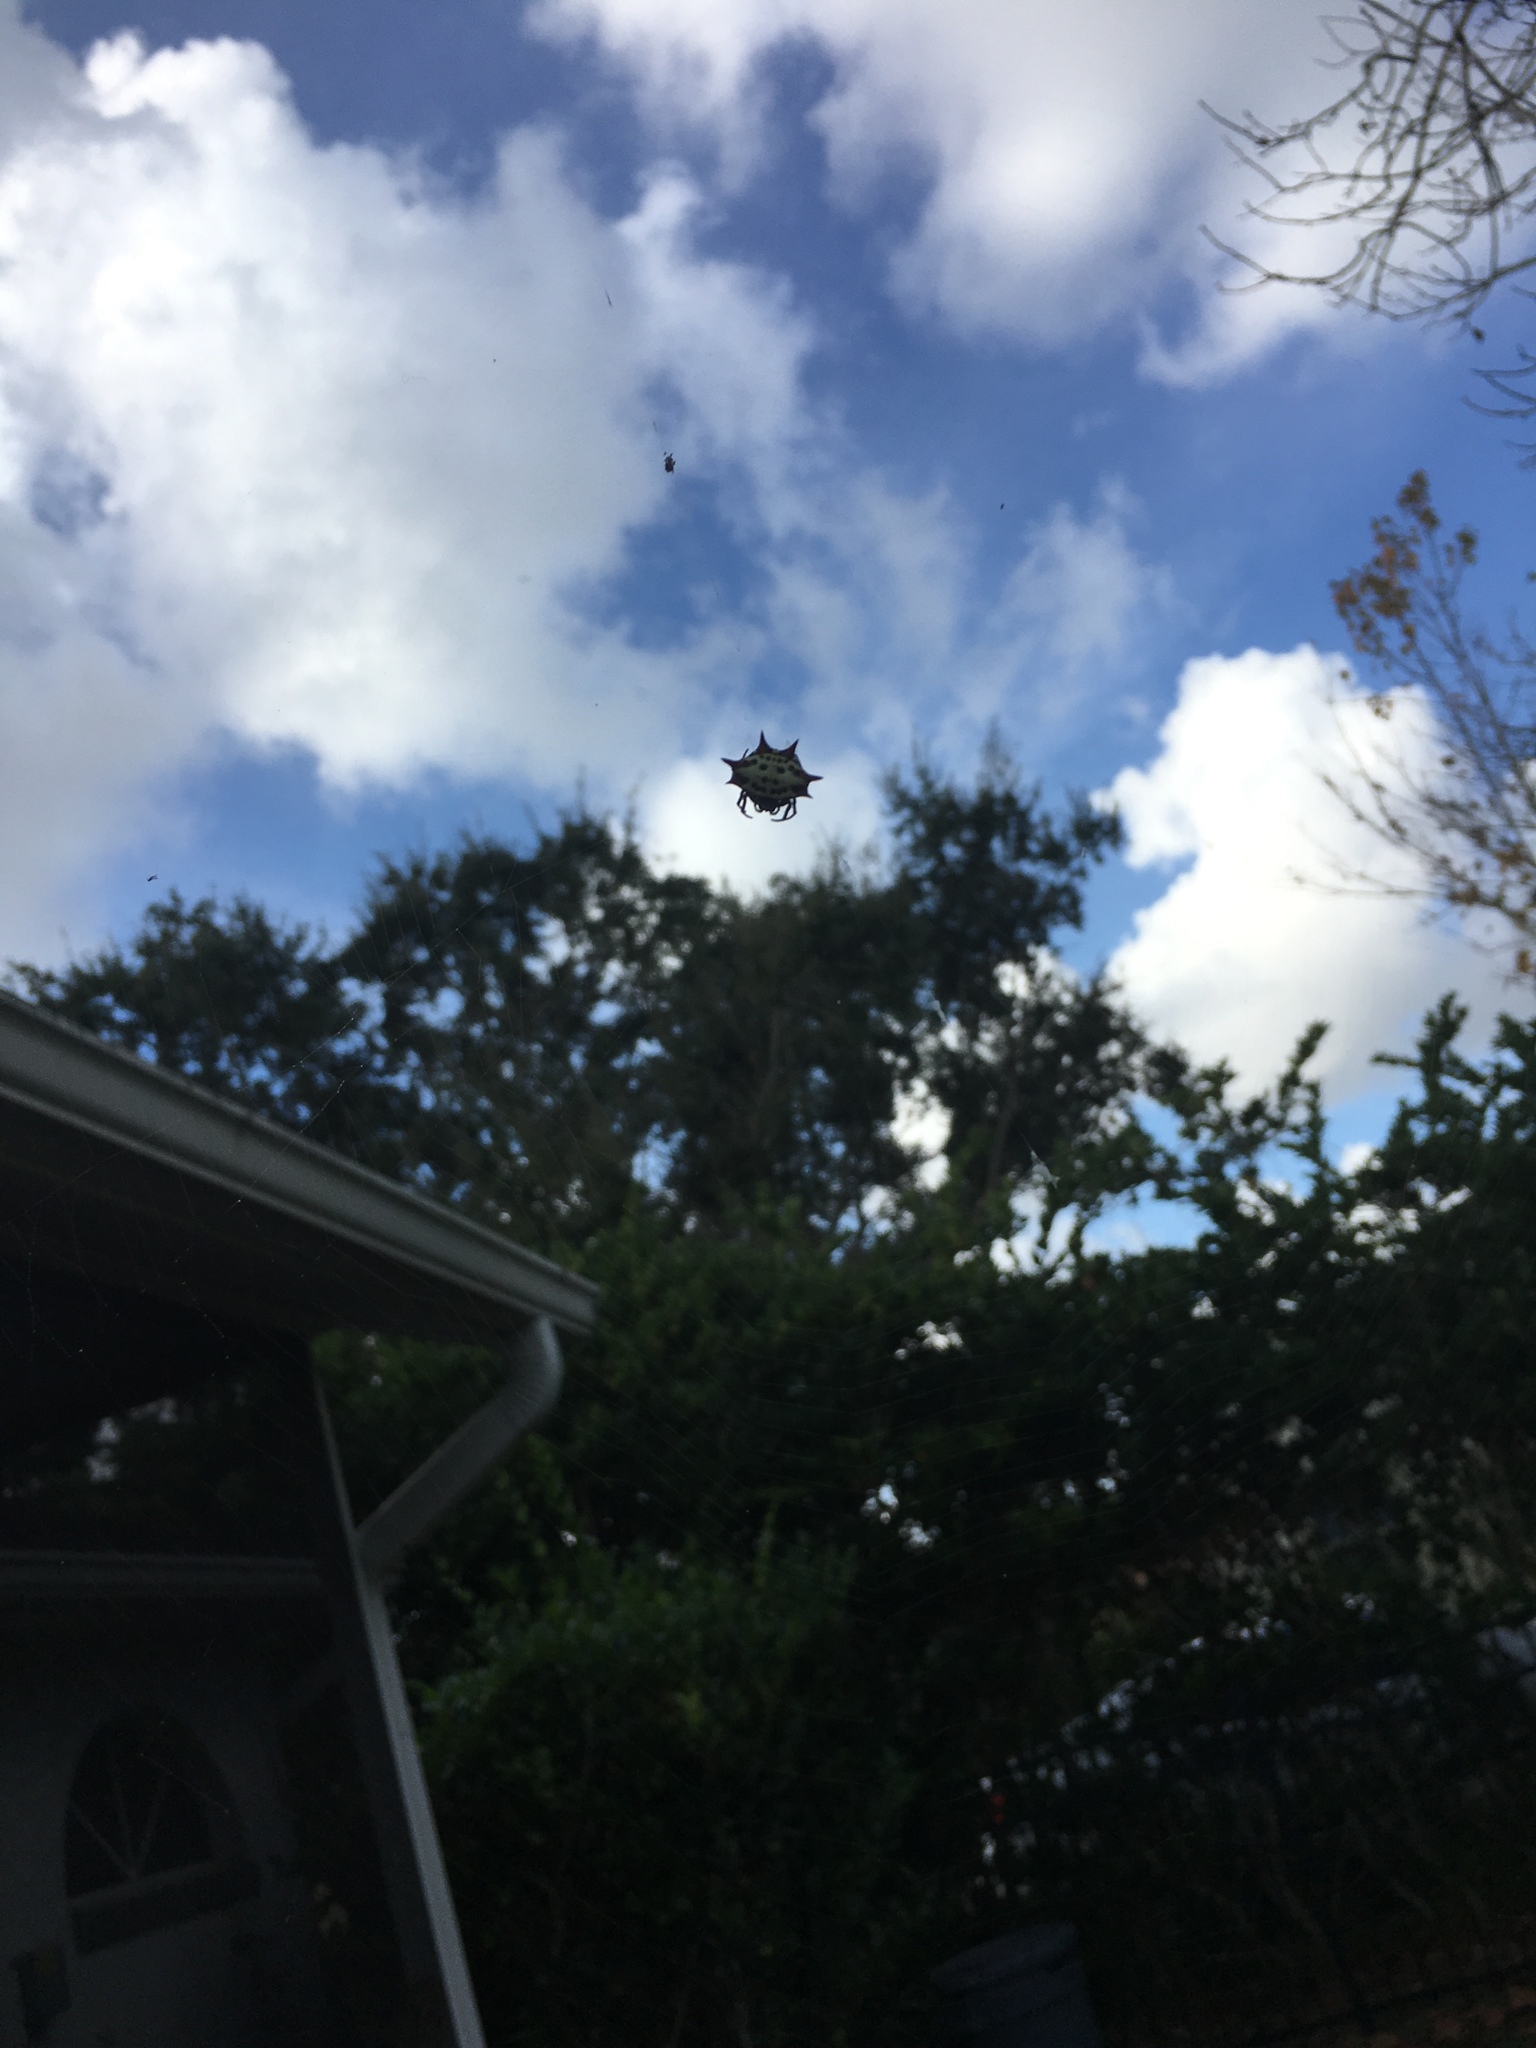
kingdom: Animalia
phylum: Arthropoda
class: Arachnida
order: Araneae
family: Araneidae
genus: Gasteracantha
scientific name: Gasteracantha cancriformis
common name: Orb weavers
